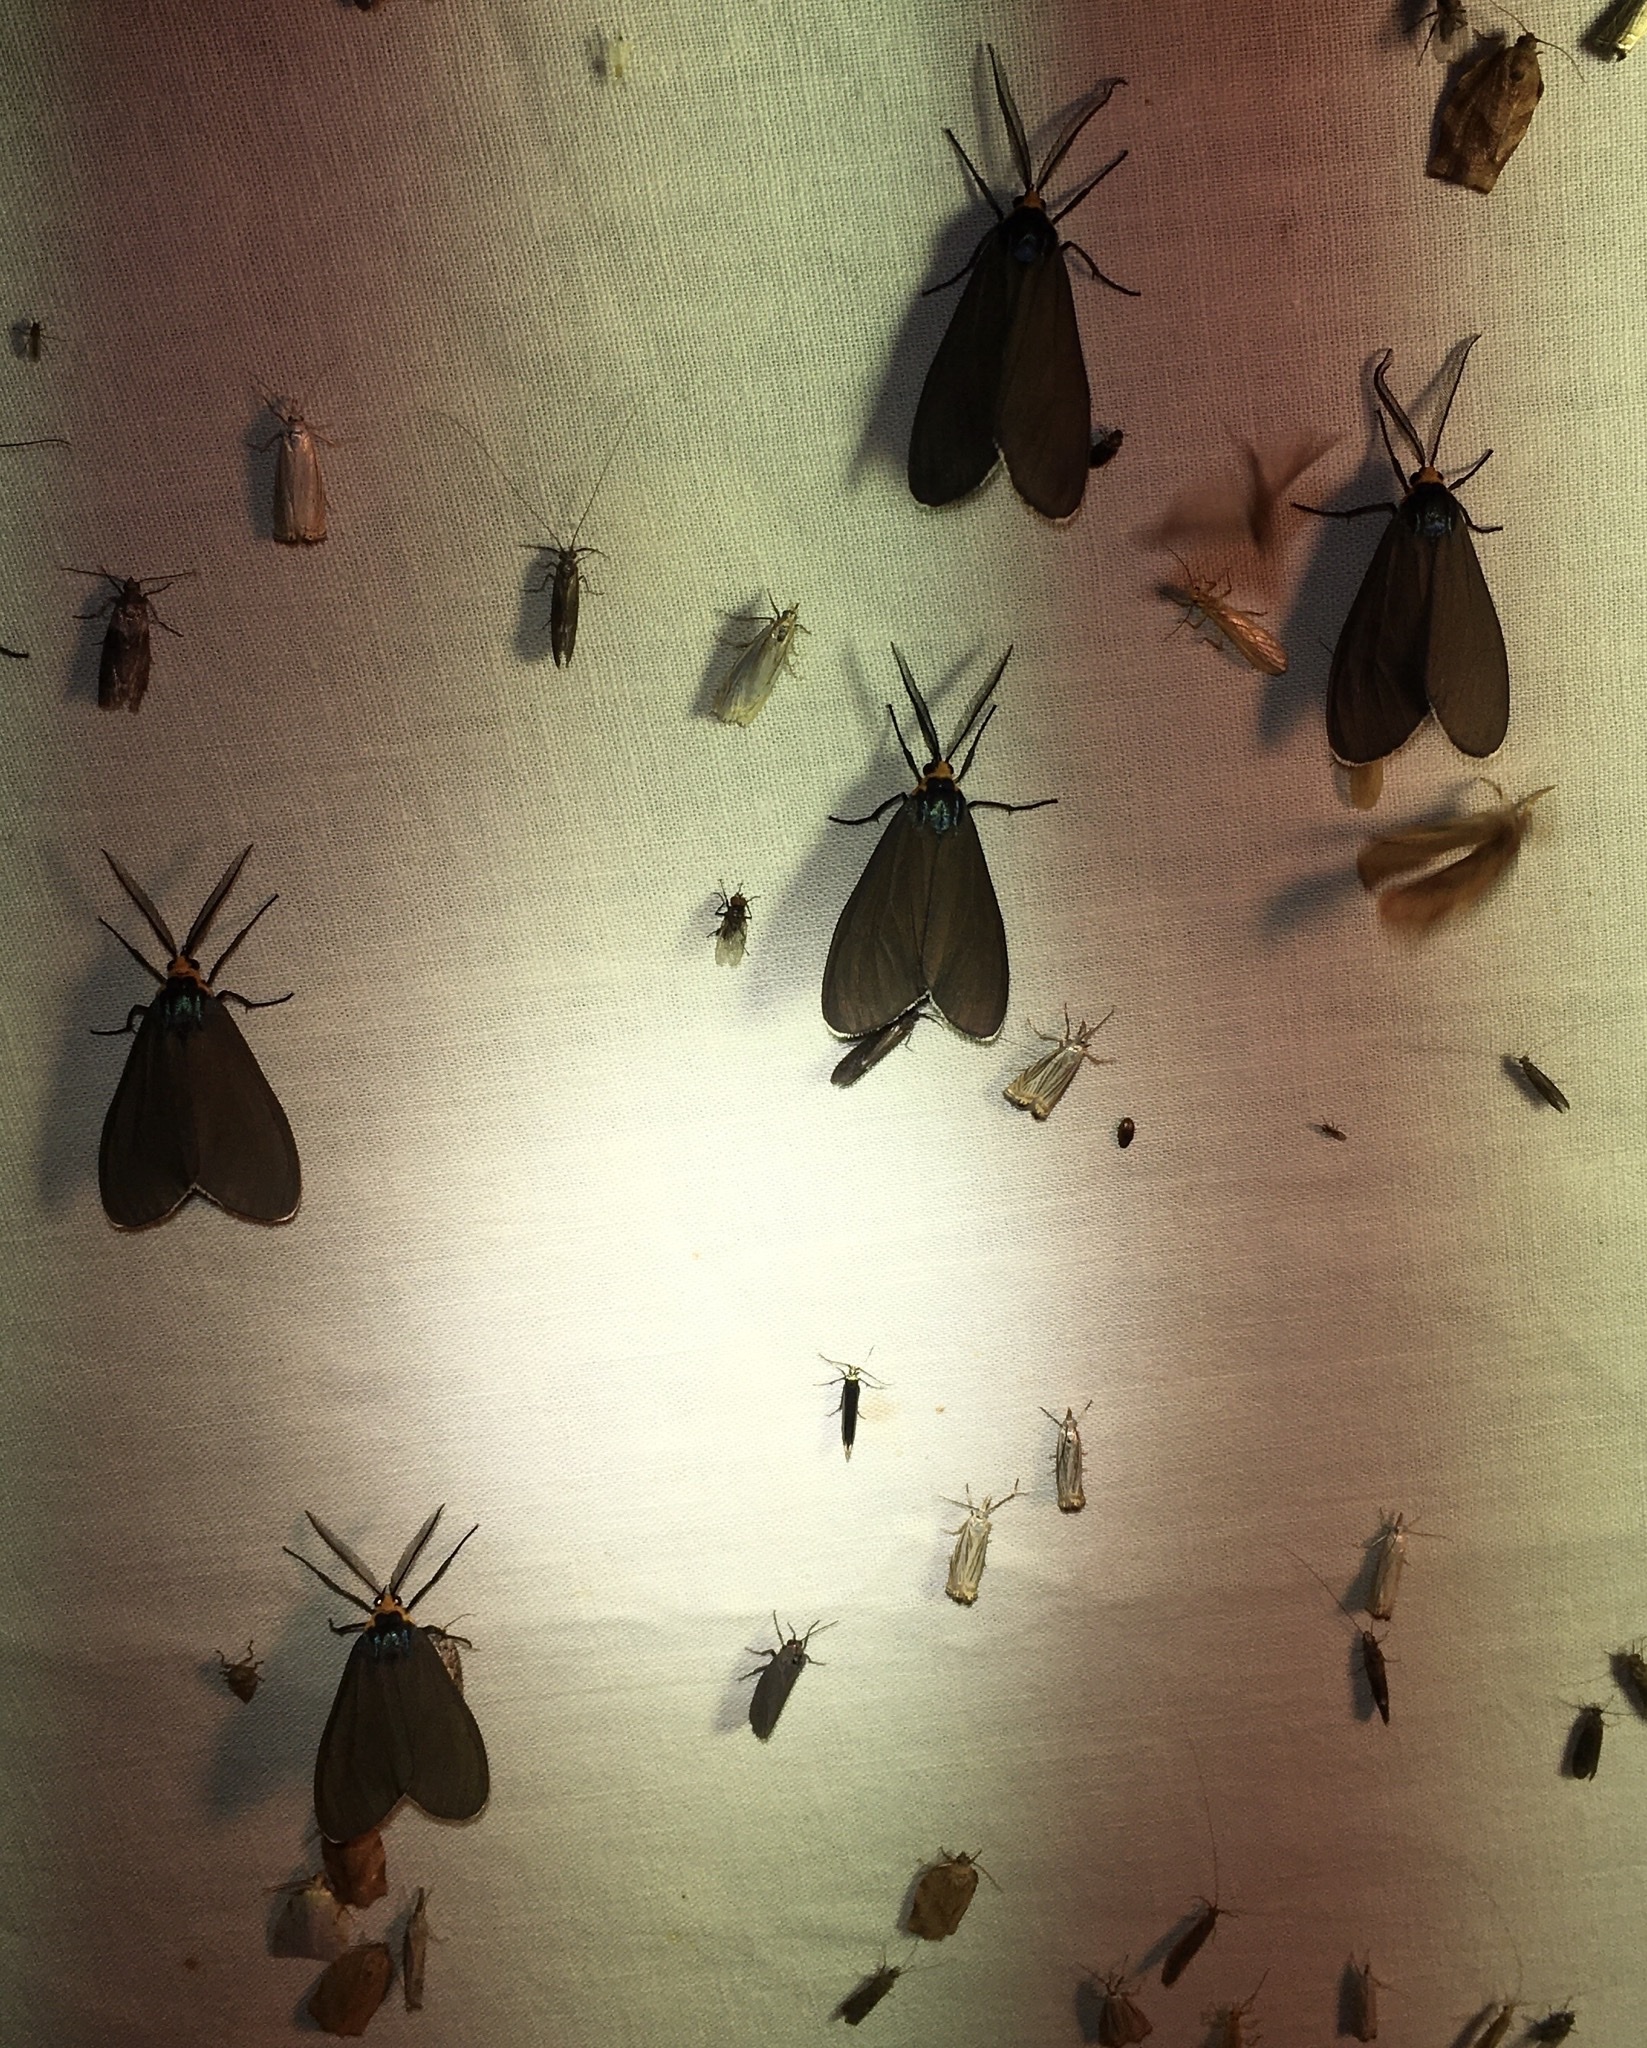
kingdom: Animalia
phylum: Arthropoda
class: Insecta
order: Lepidoptera
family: Erebidae
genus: Ctenucha
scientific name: Ctenucha virginica
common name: Virginia ctenucha moth
